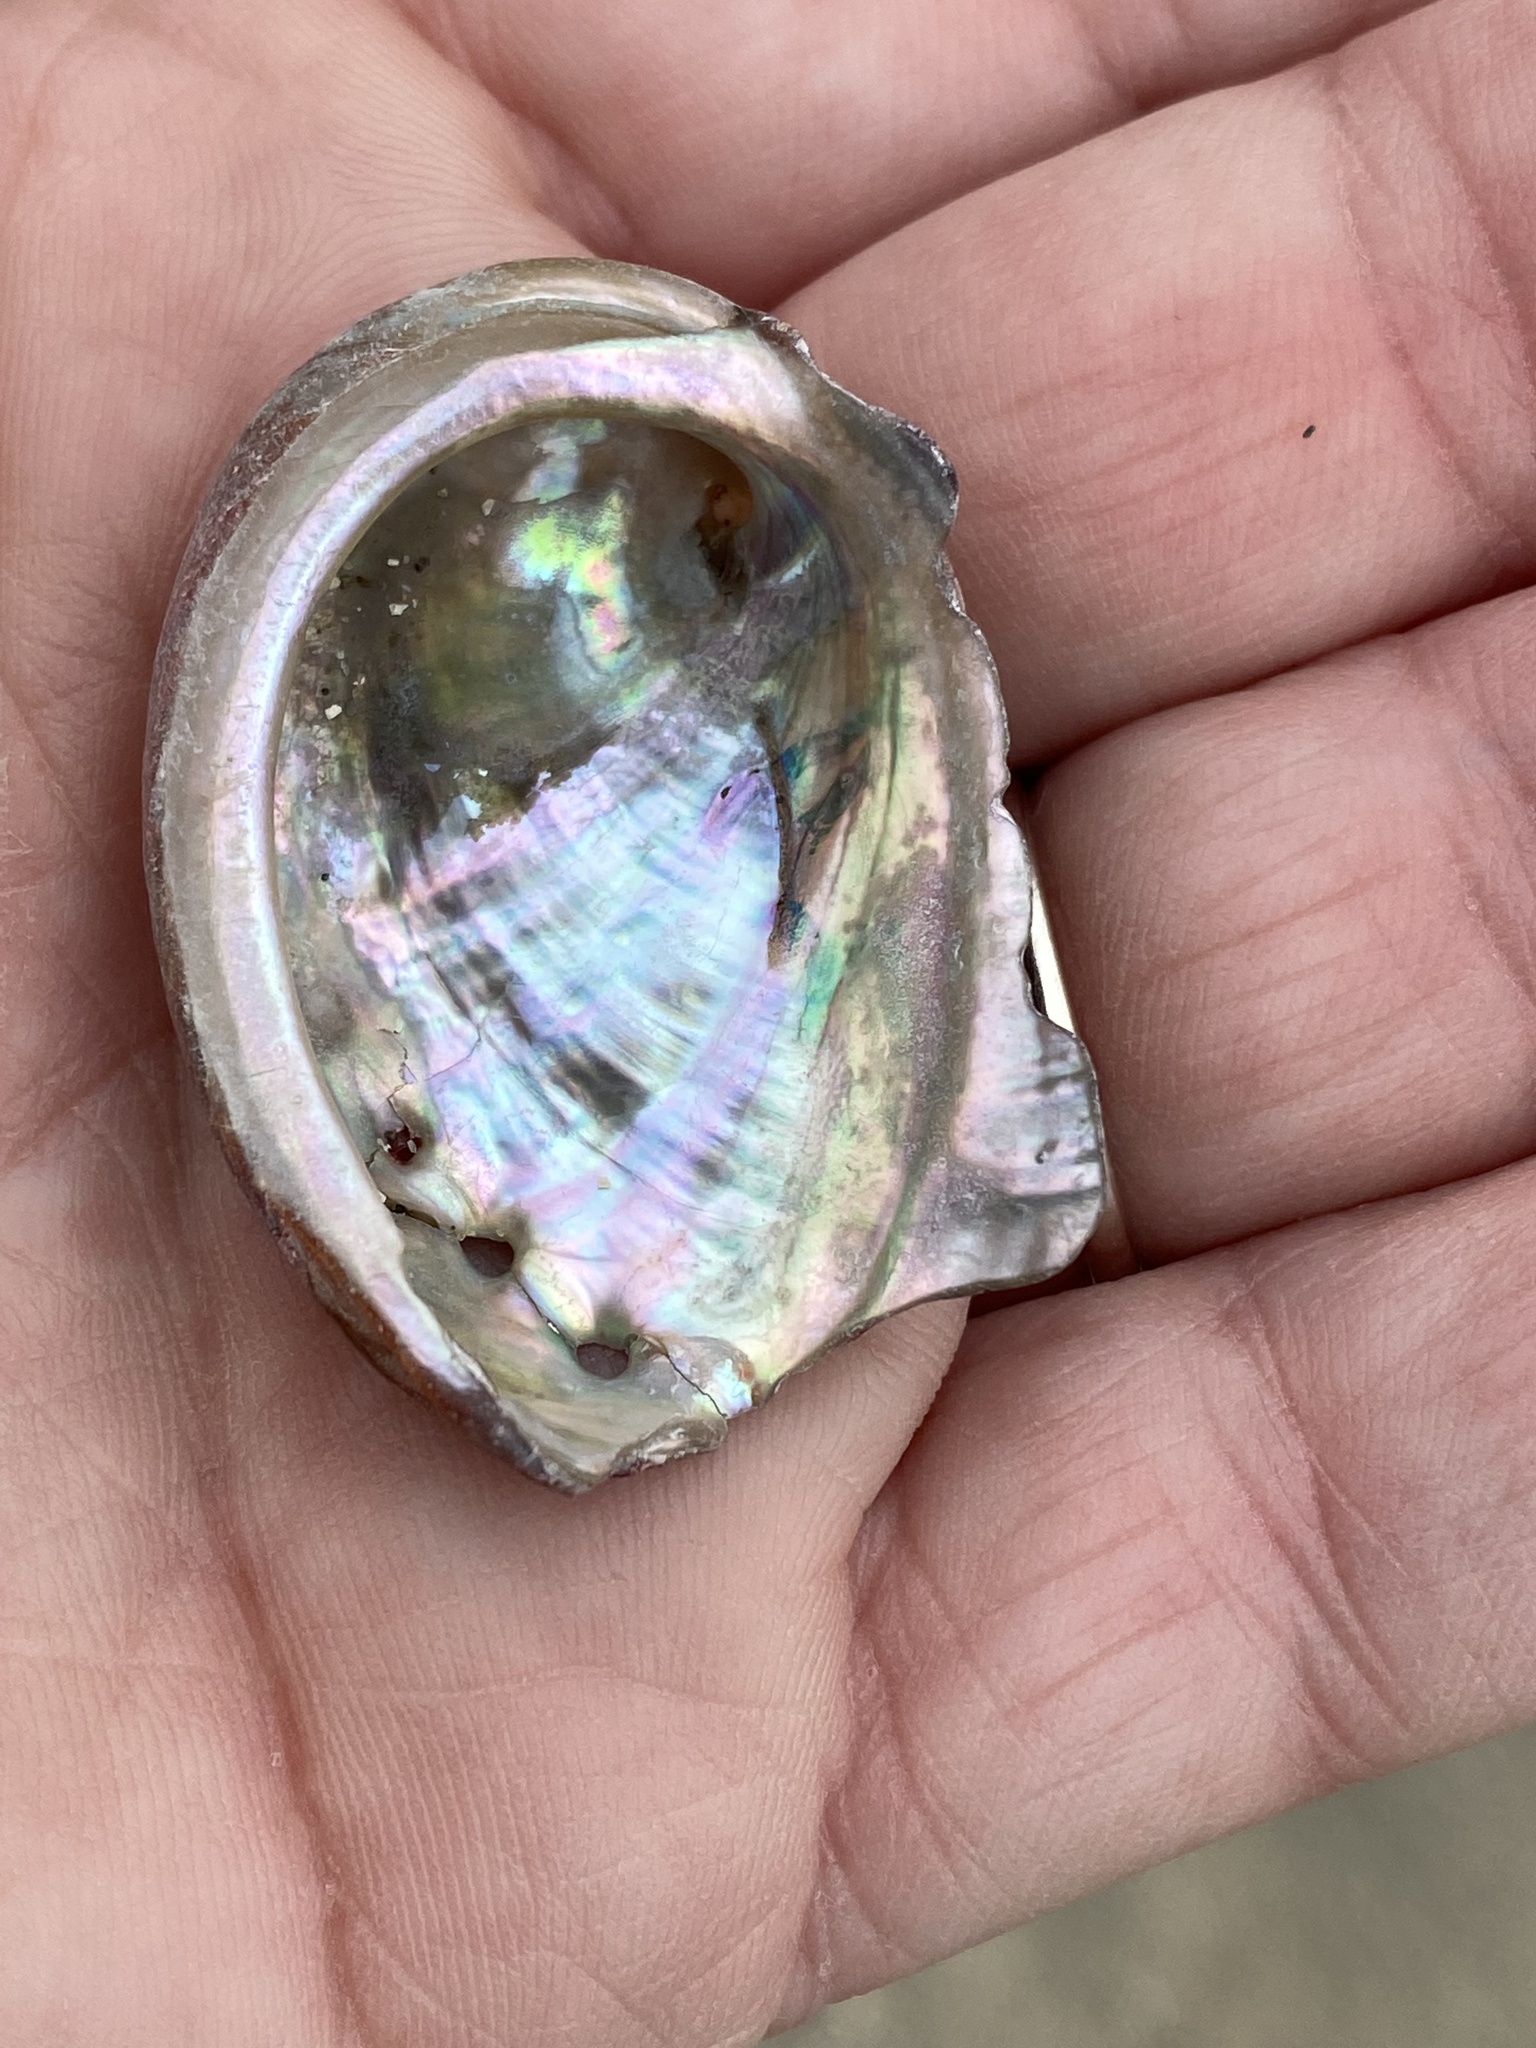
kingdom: Animalia
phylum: Mollusca
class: Gastropoda
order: Lepetellida
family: Haliotidae
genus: Haliotis
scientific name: Haliotis rufescens
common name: Red abalone
